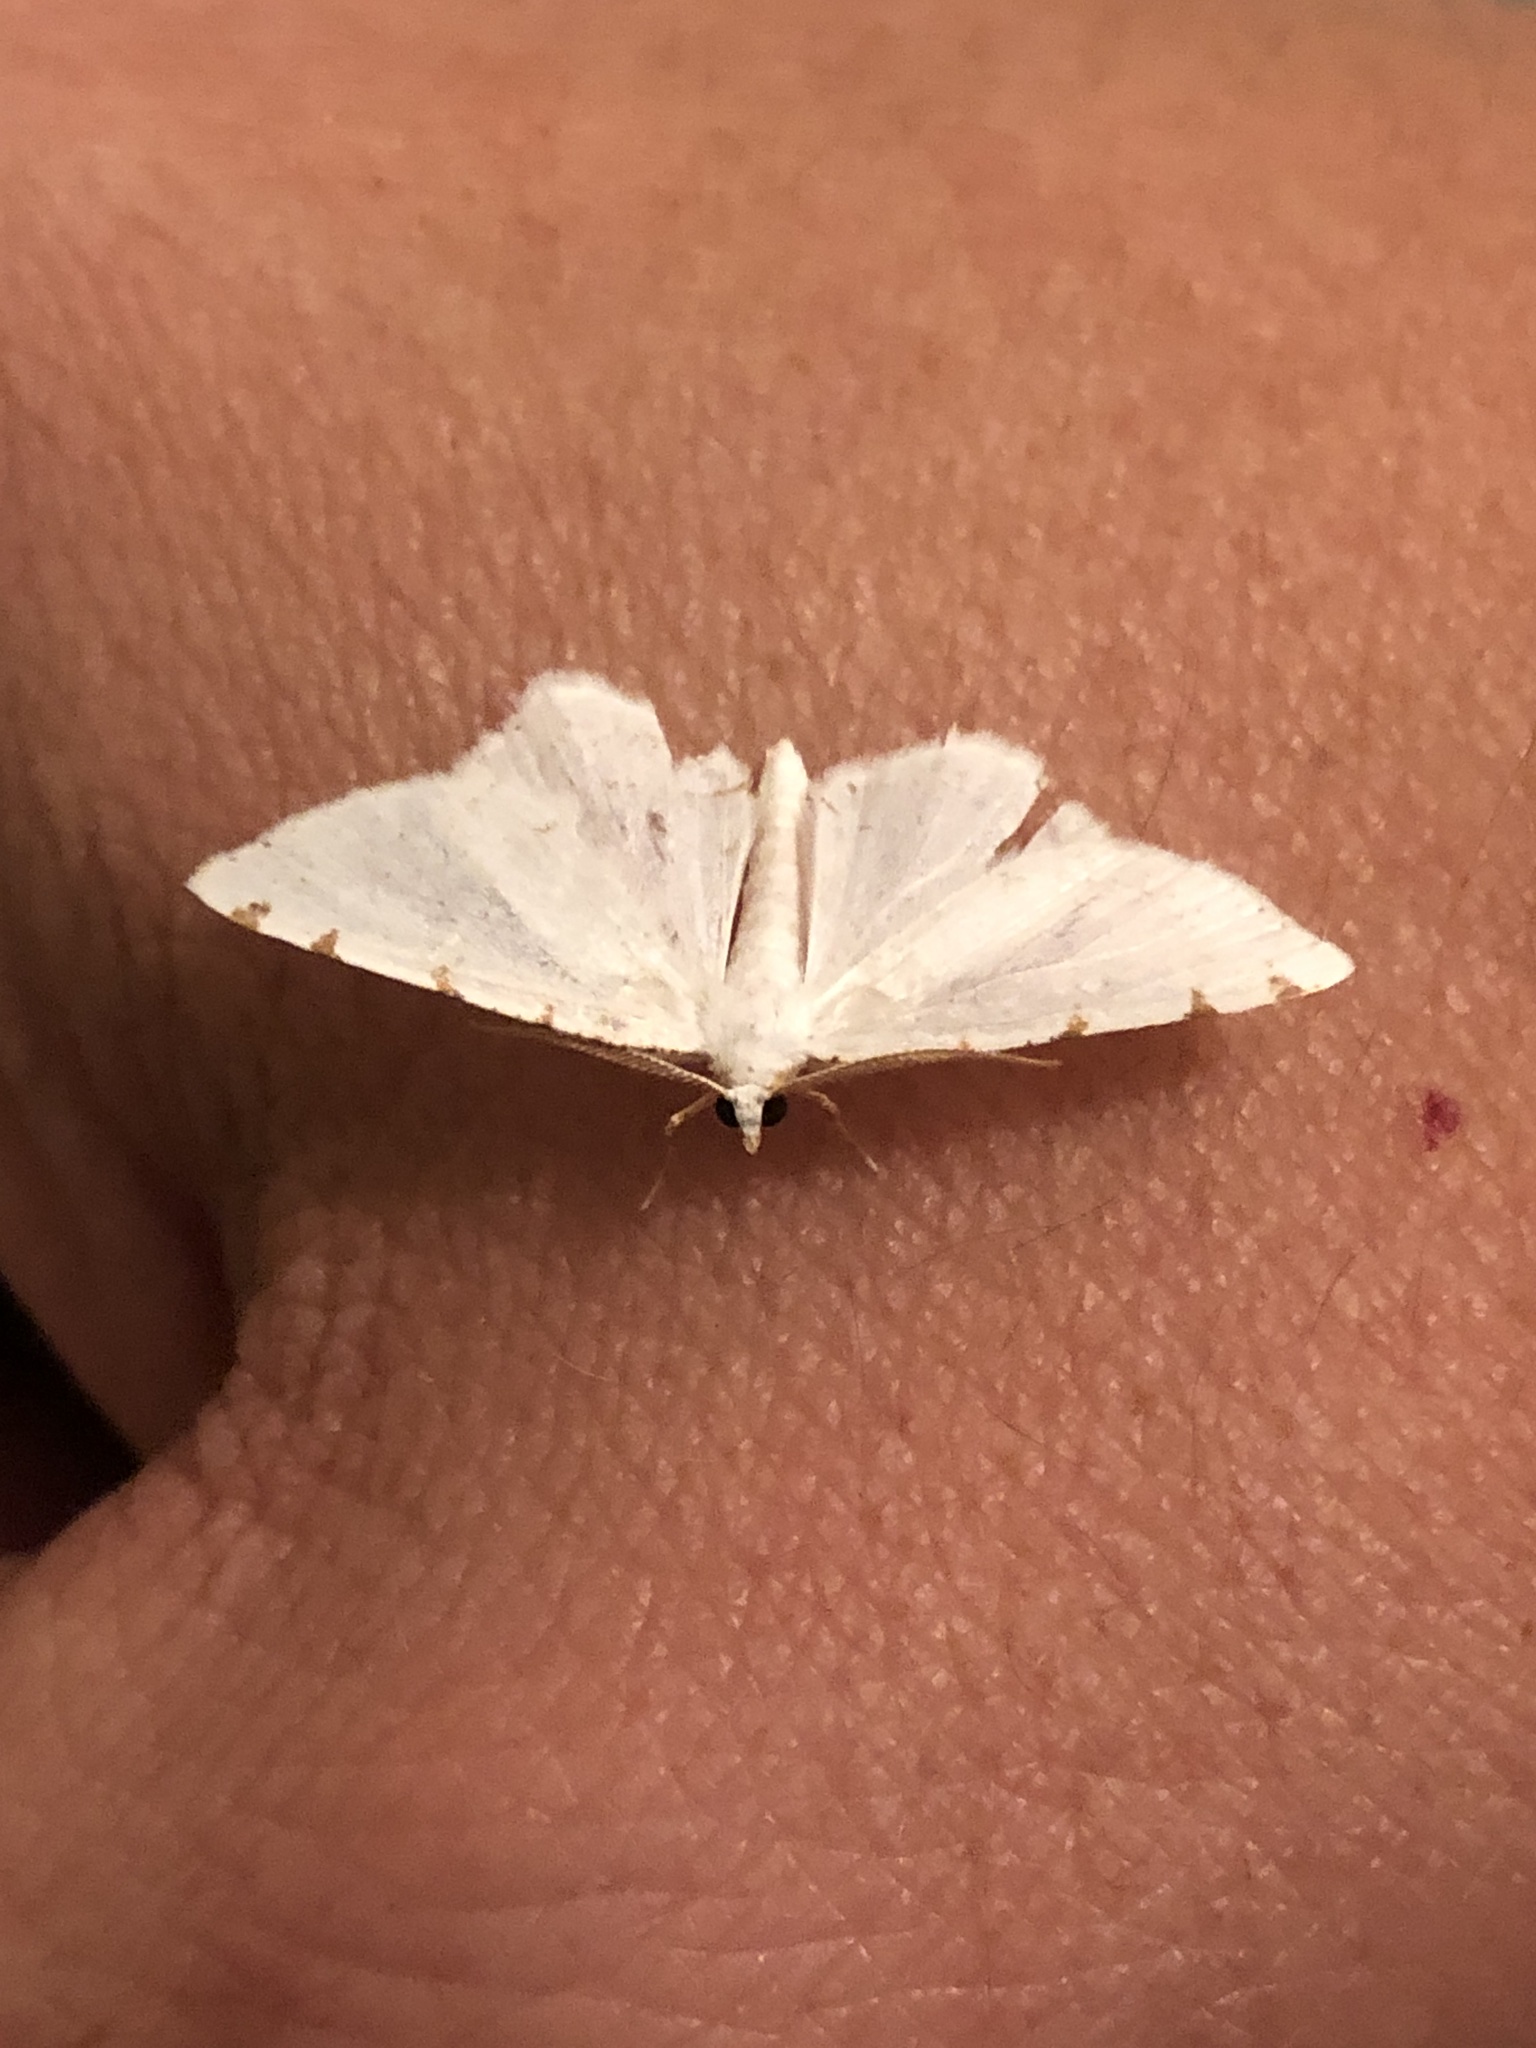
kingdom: Animalia
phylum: Arthropoda
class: Insecta
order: Lepidoptera
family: Geometridae
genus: Macaria
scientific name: Macaria pustularia
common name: Lesser maple spanworm moth
